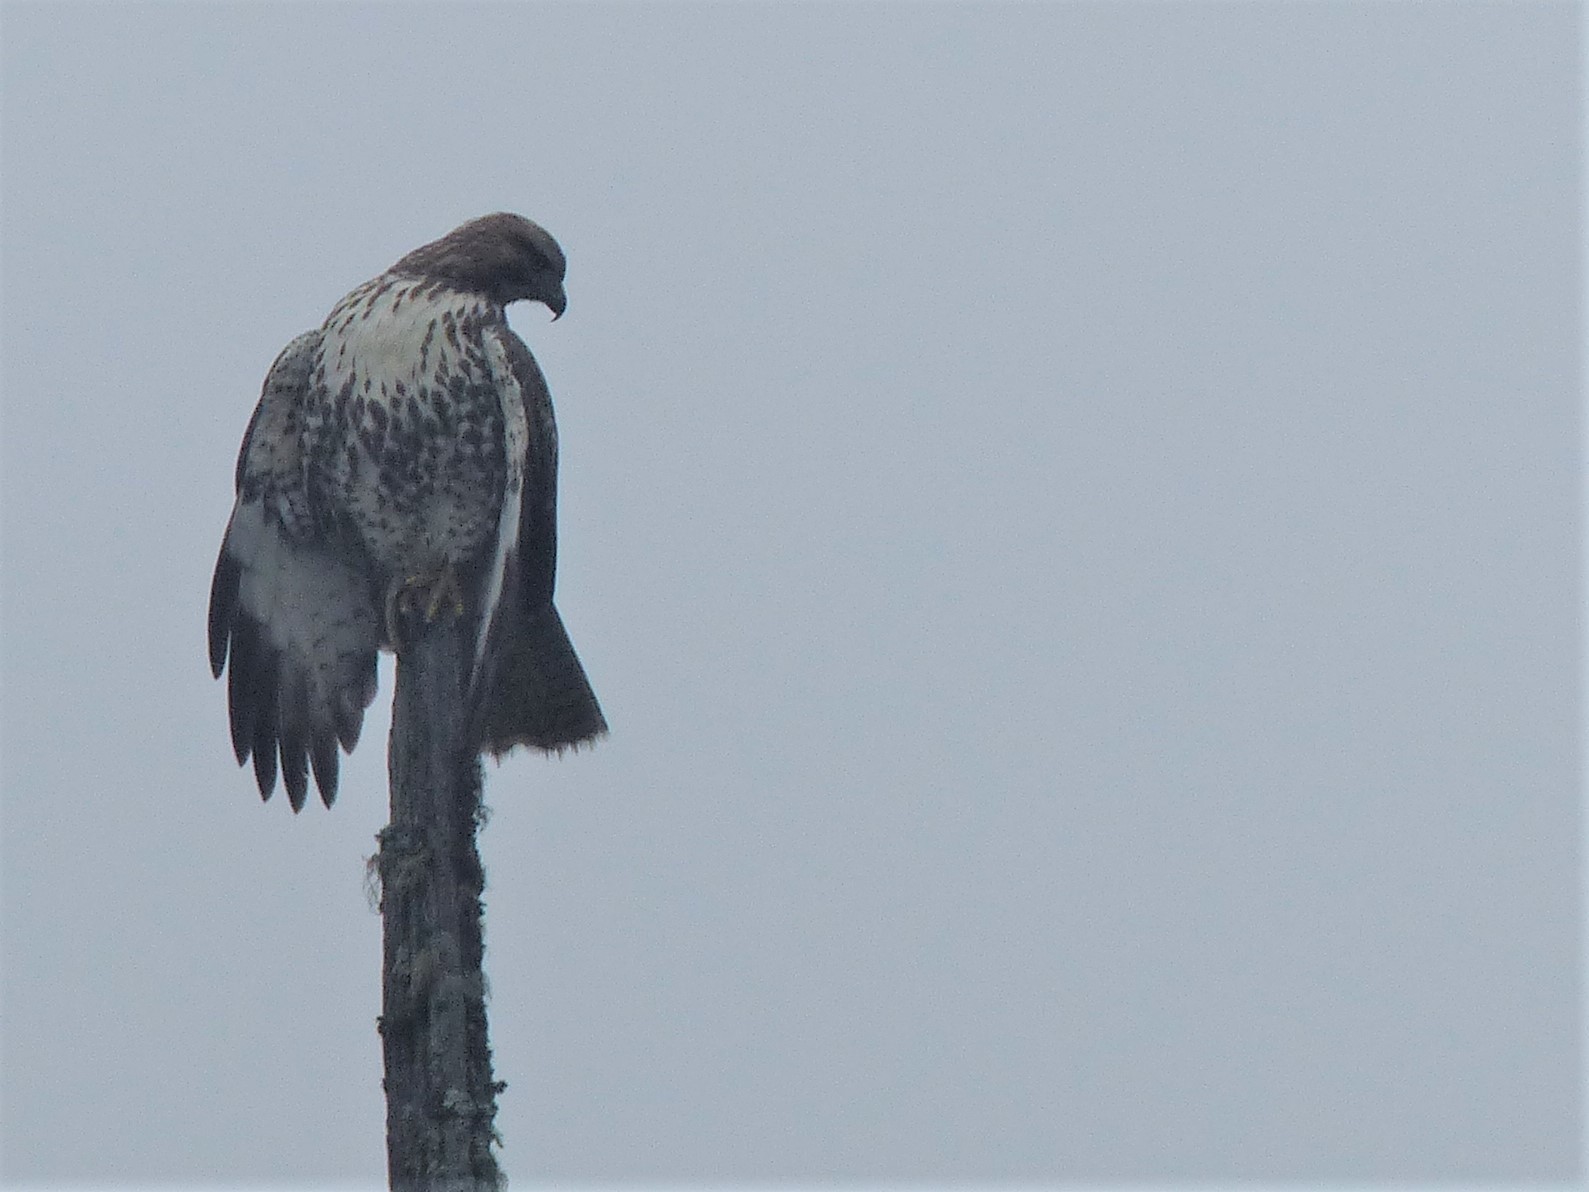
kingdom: Animalia
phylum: Chordata
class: Aves
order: Accipitriformes
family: Accipitridae
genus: Buteo
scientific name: Buteo jamaicensis
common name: Red-tailed hawk
